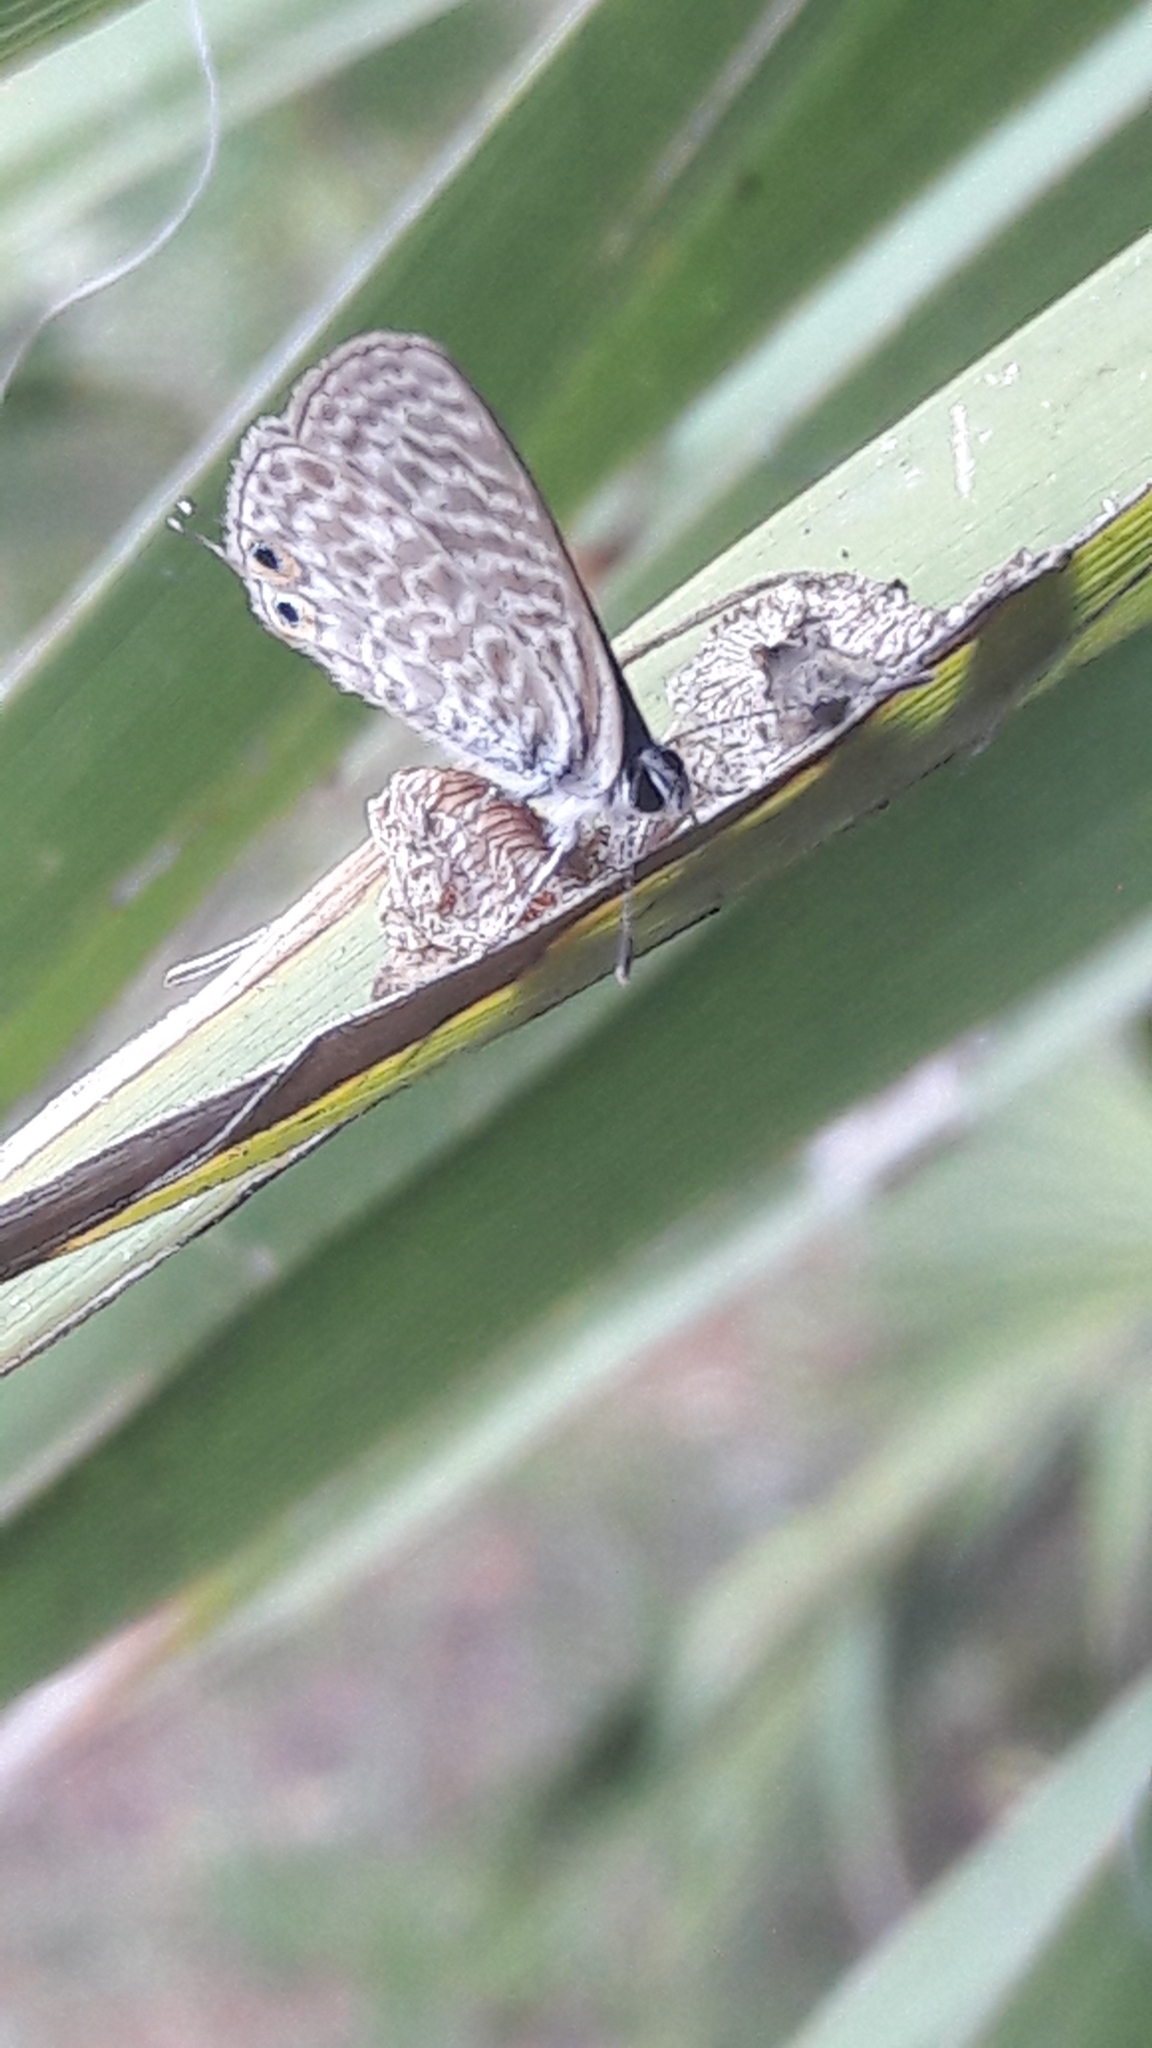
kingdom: Animalia
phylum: Arthropoda
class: Insecta
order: Lepidoptera
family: Lycaenidae
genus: Leptotes
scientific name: Leptotes pirithous
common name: Lang's short-tailed blue
